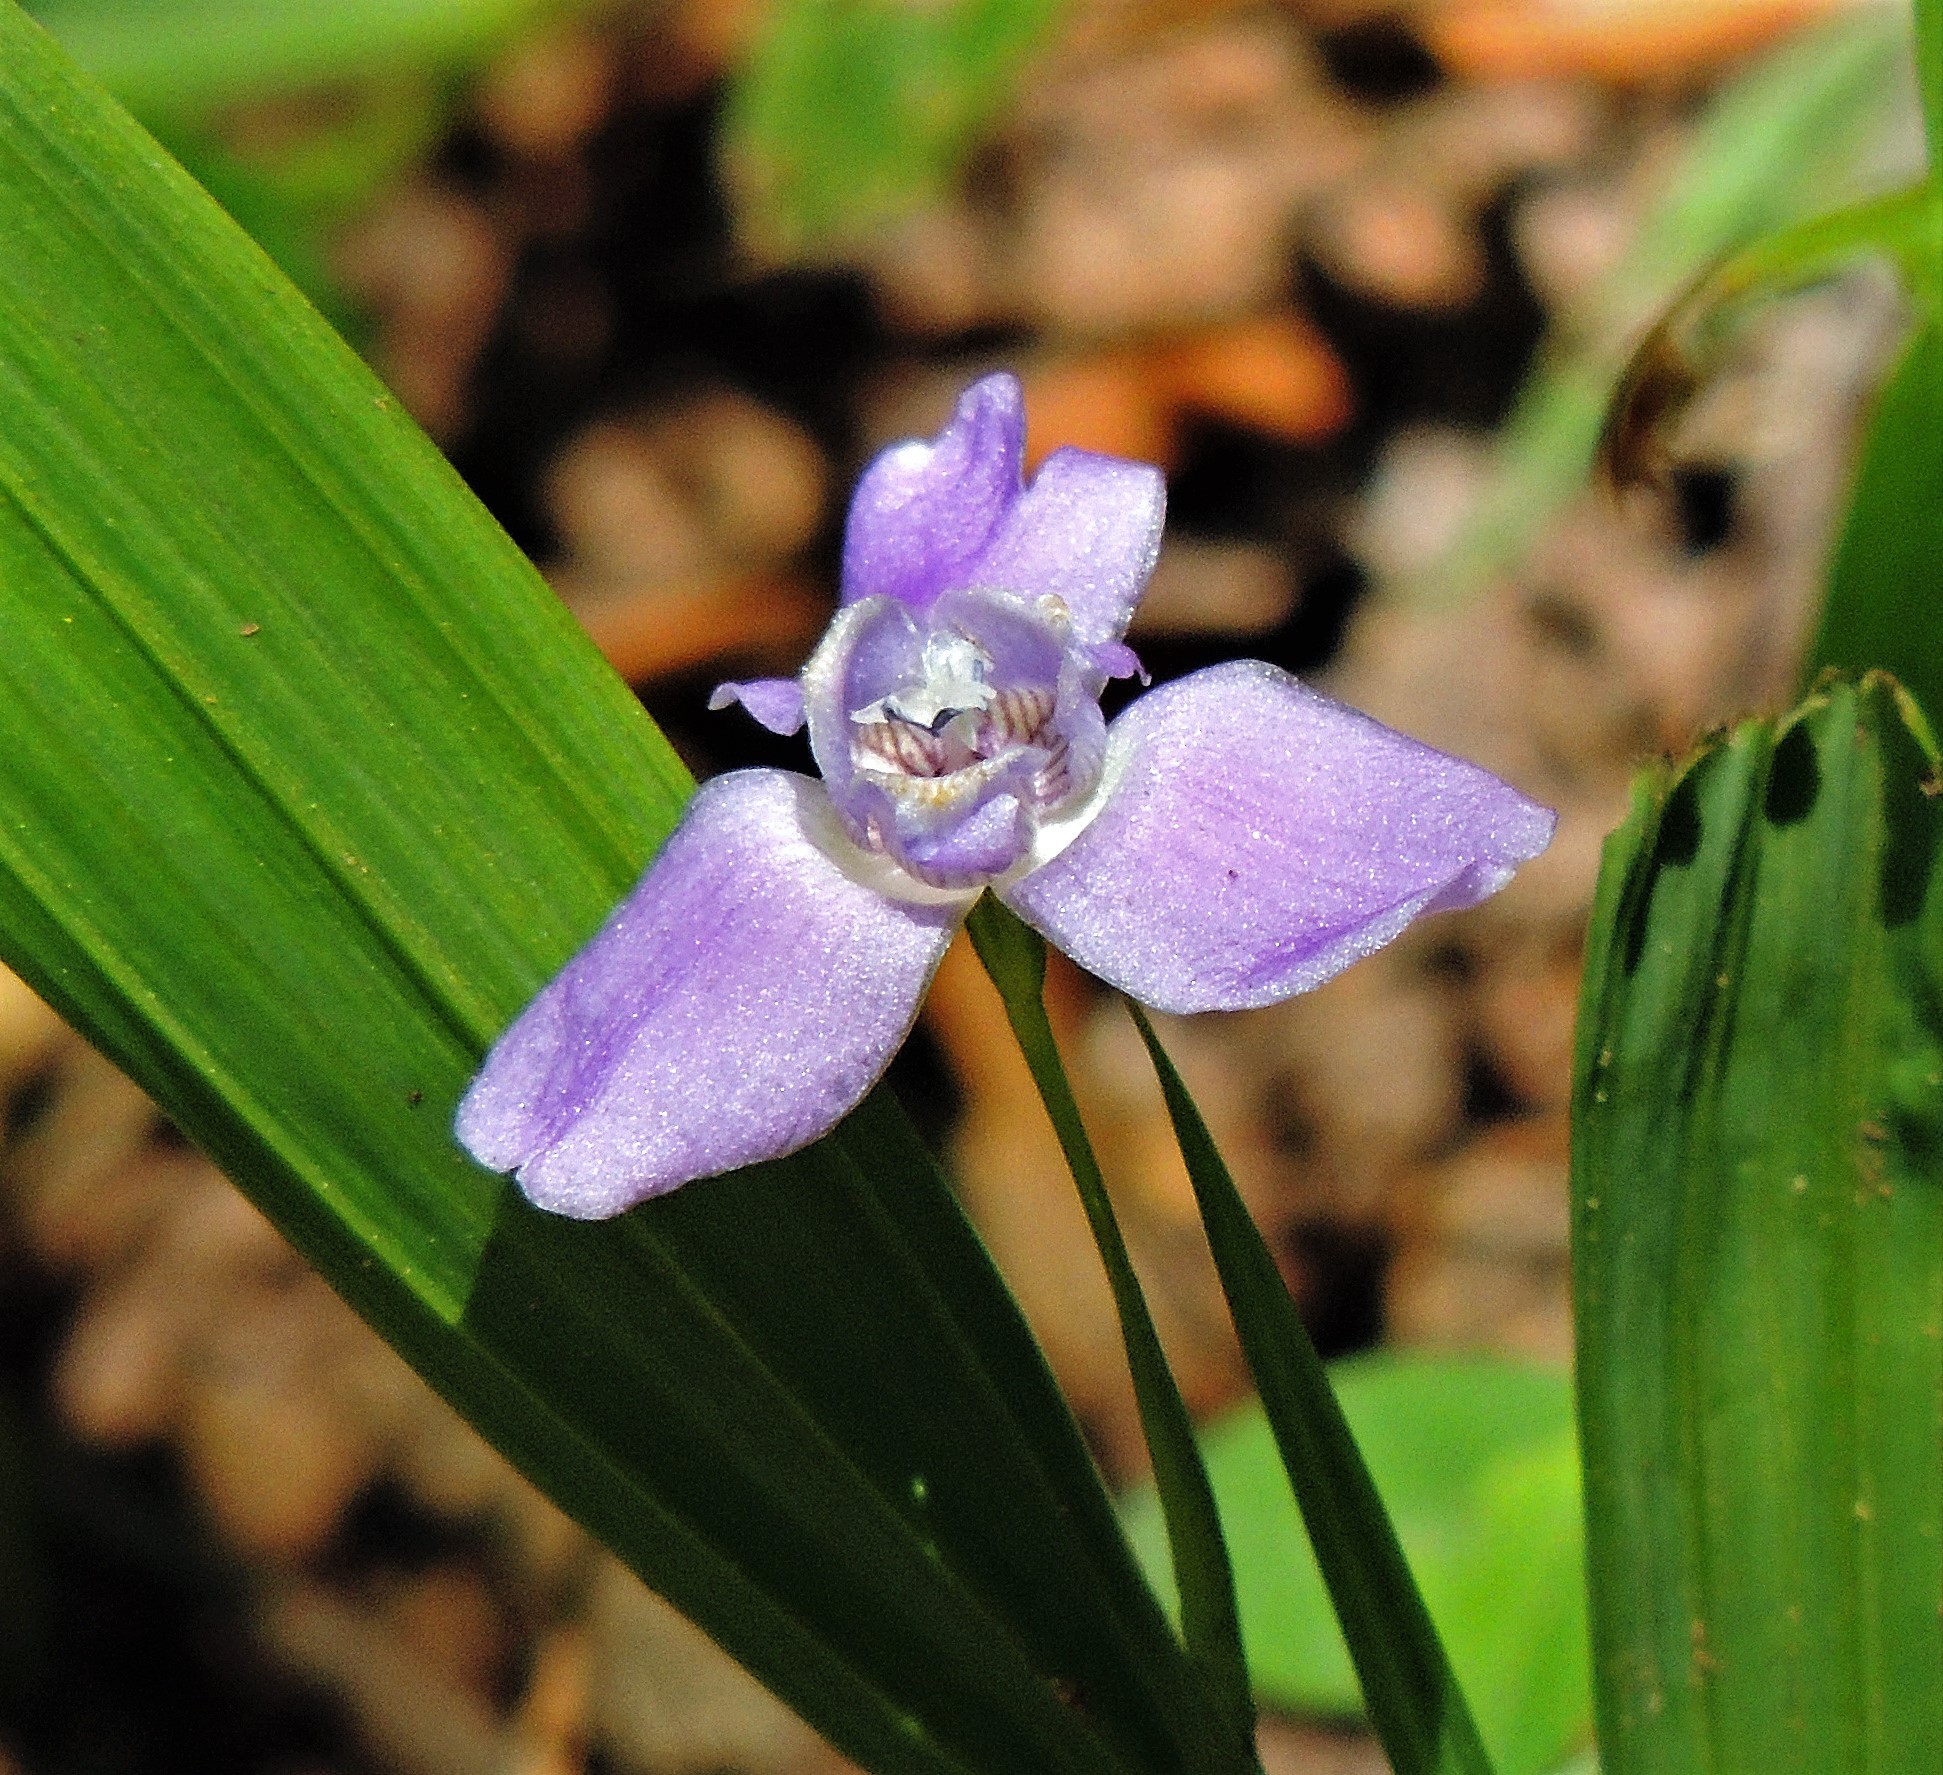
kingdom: Plantae
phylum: Tracheophyta
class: Liliopsida
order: Asparagales
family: Iridaceae
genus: Ennealophus
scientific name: Ennealophus euryandrus
